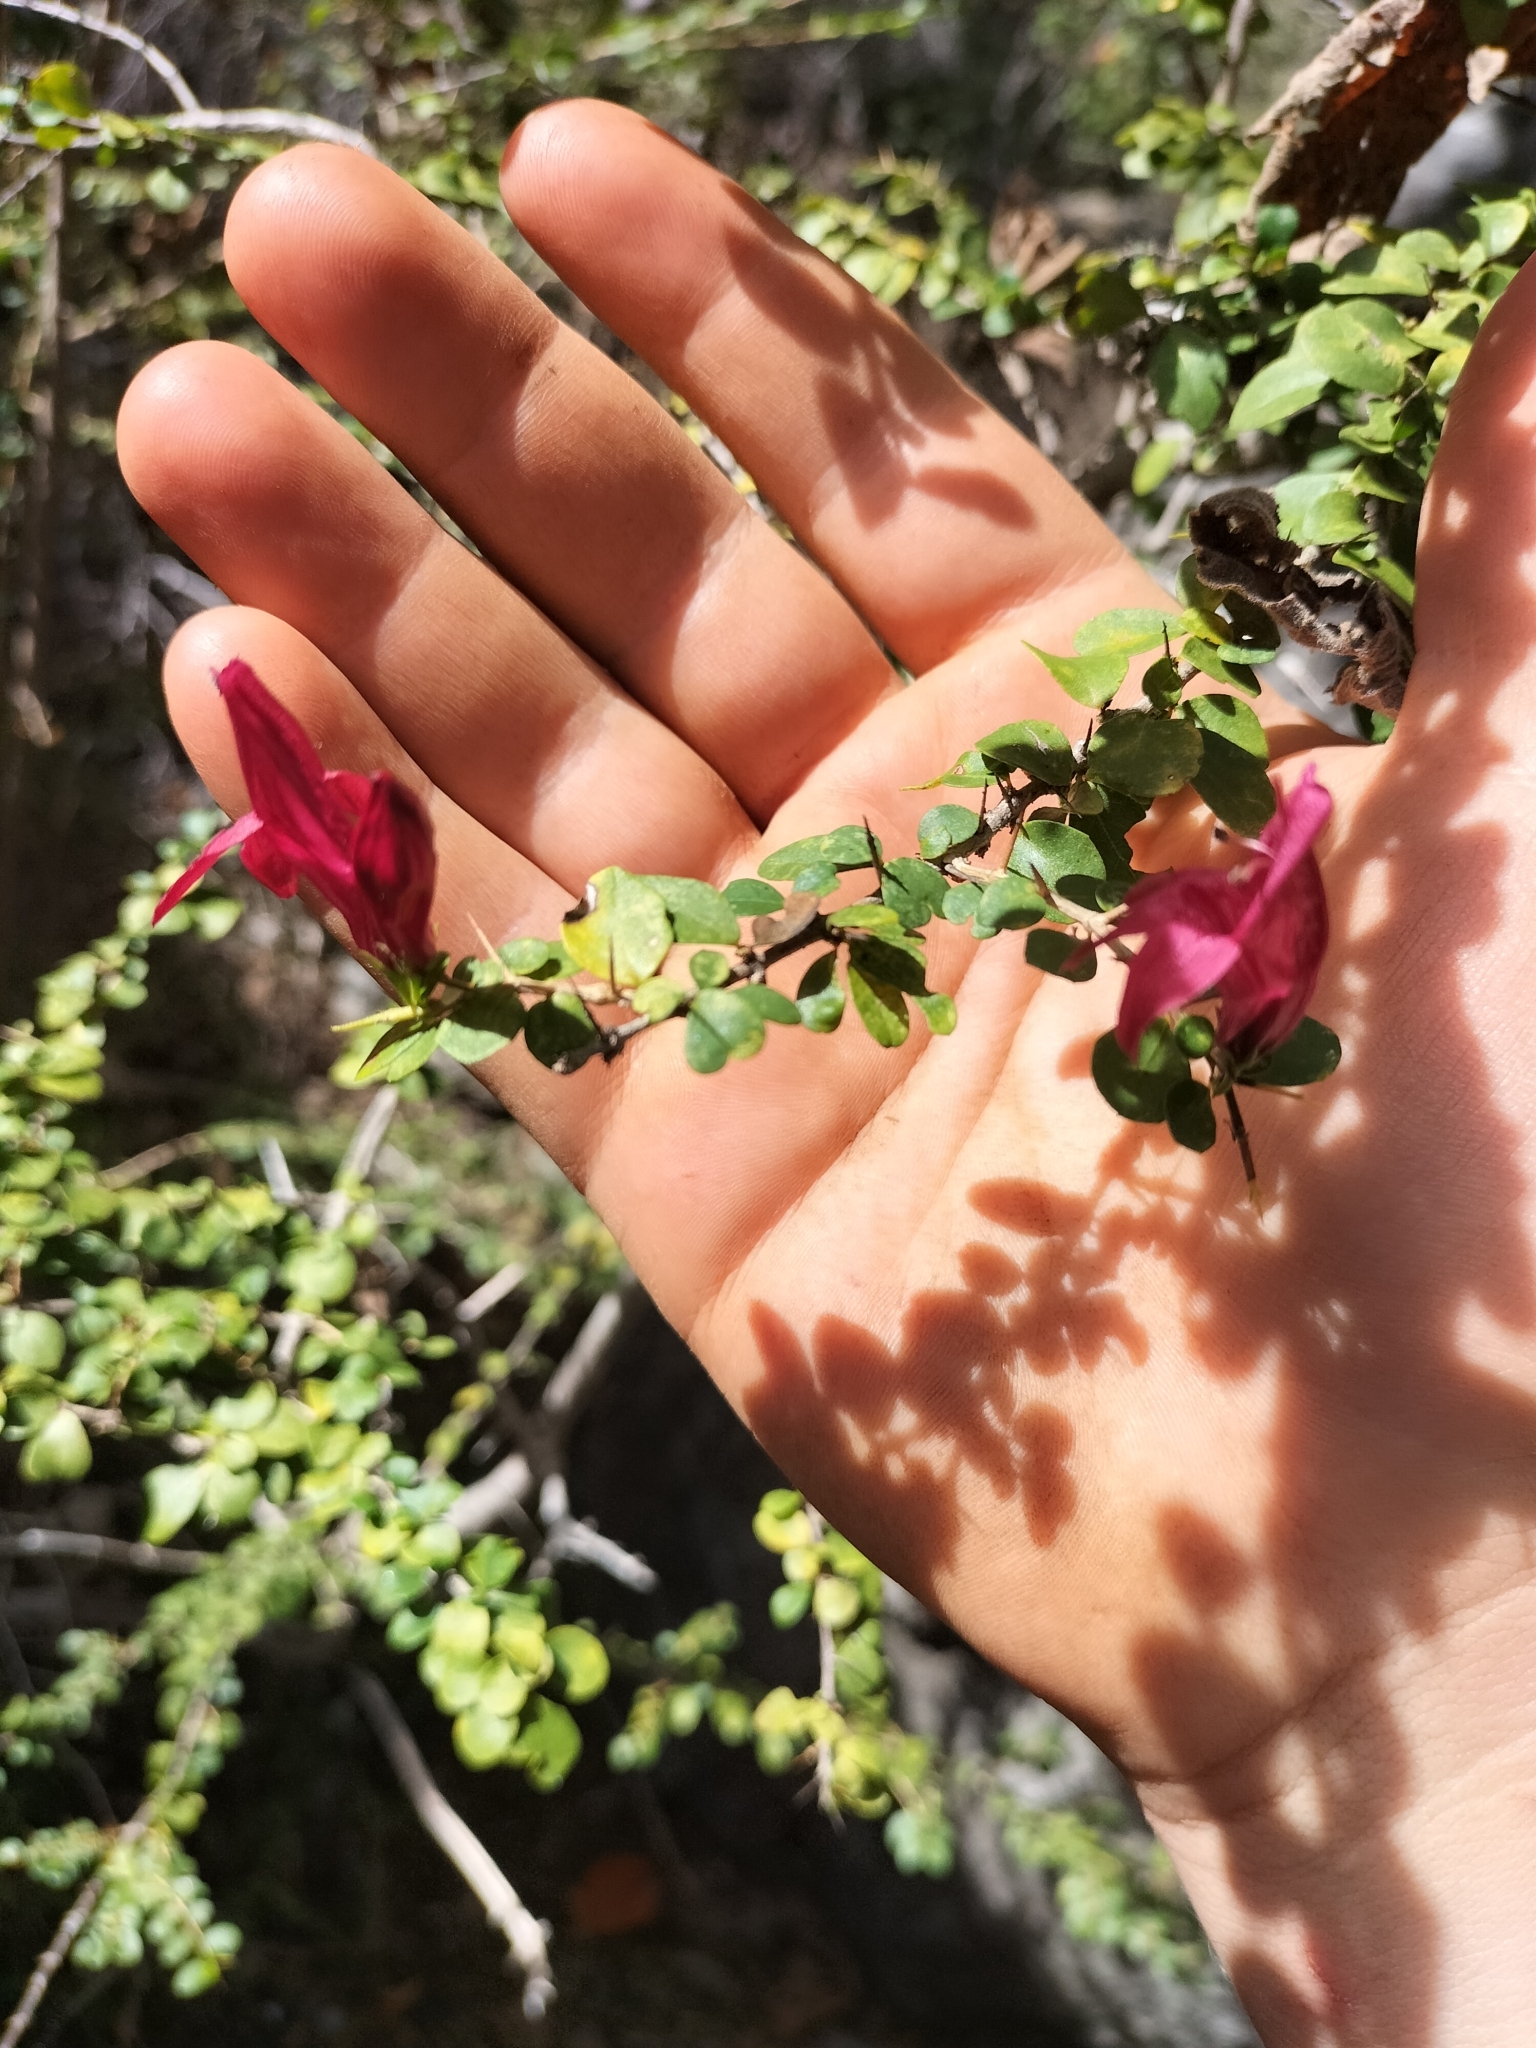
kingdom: Plantae
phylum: Tracheophyta
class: Magnoliopsida
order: Lamiales
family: Acanthaceae
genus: Graptophyllum
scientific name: Graptophyllum excelsum
